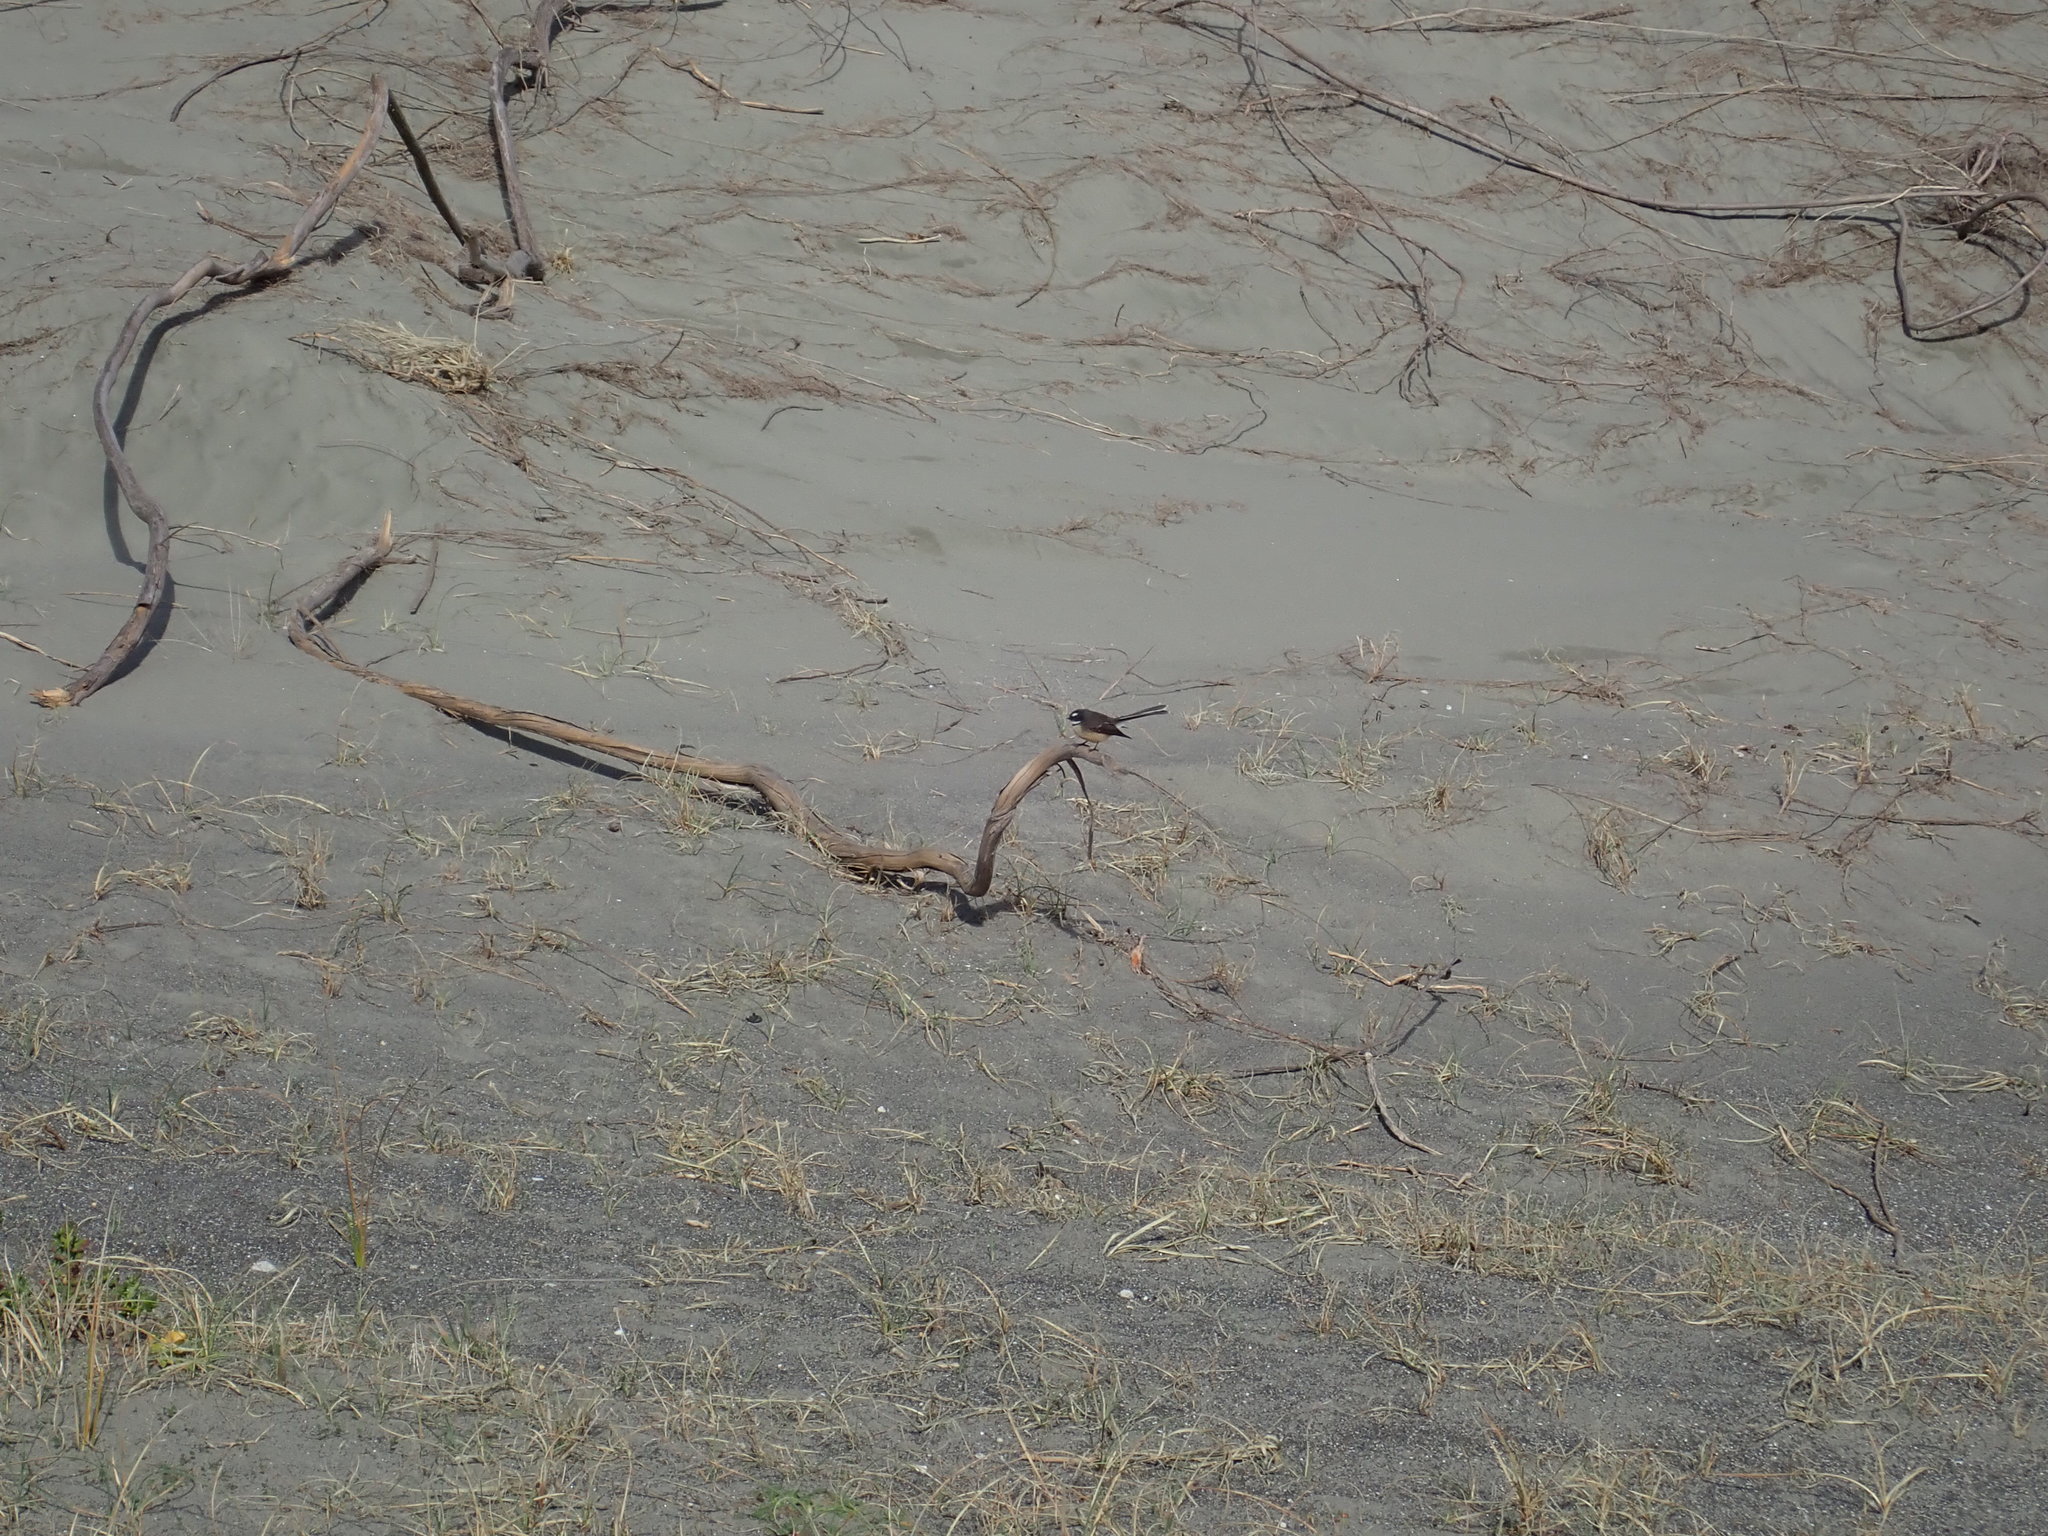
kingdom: Animalia
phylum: Chordata
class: Aves
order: Passeriformes
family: Rhipiduridae
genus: Rhipidura
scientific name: Rhipidura fuliginosa
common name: New zealand fantail
